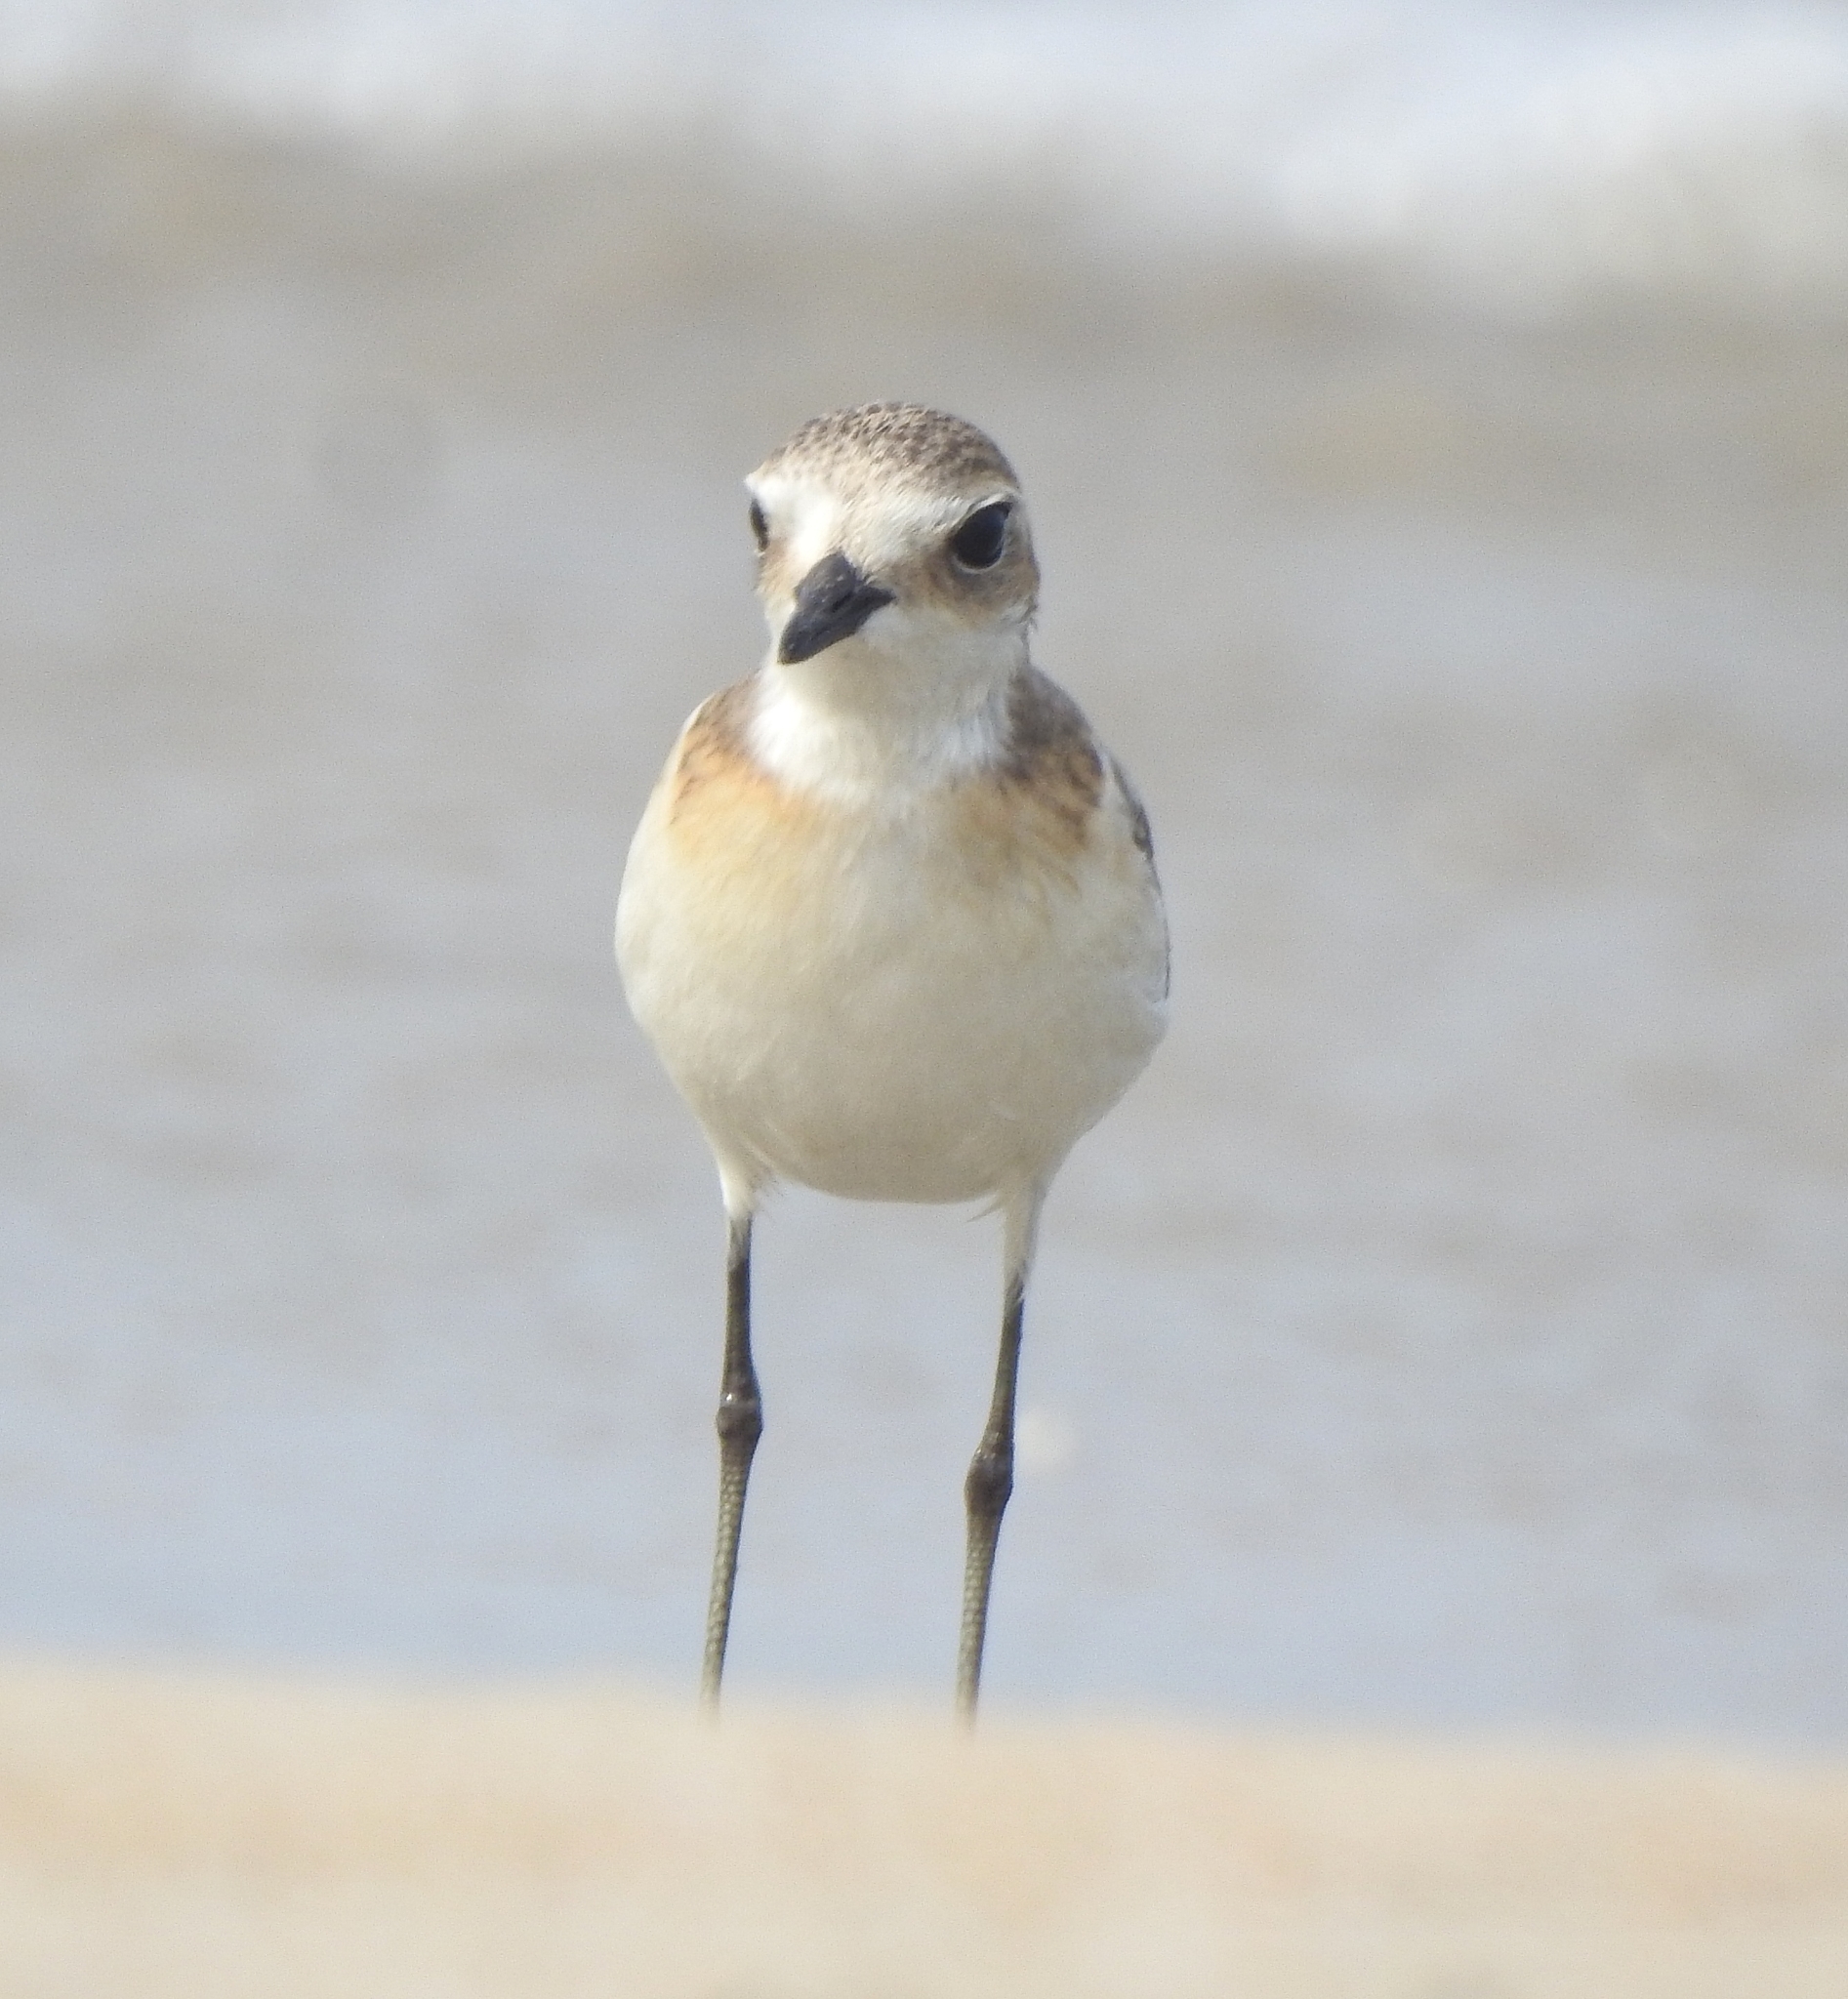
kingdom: Animalia
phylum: Chordata
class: Aves
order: Charadriiformes
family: Charadriidae
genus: Anarhynchus
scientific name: Anarhynchus
